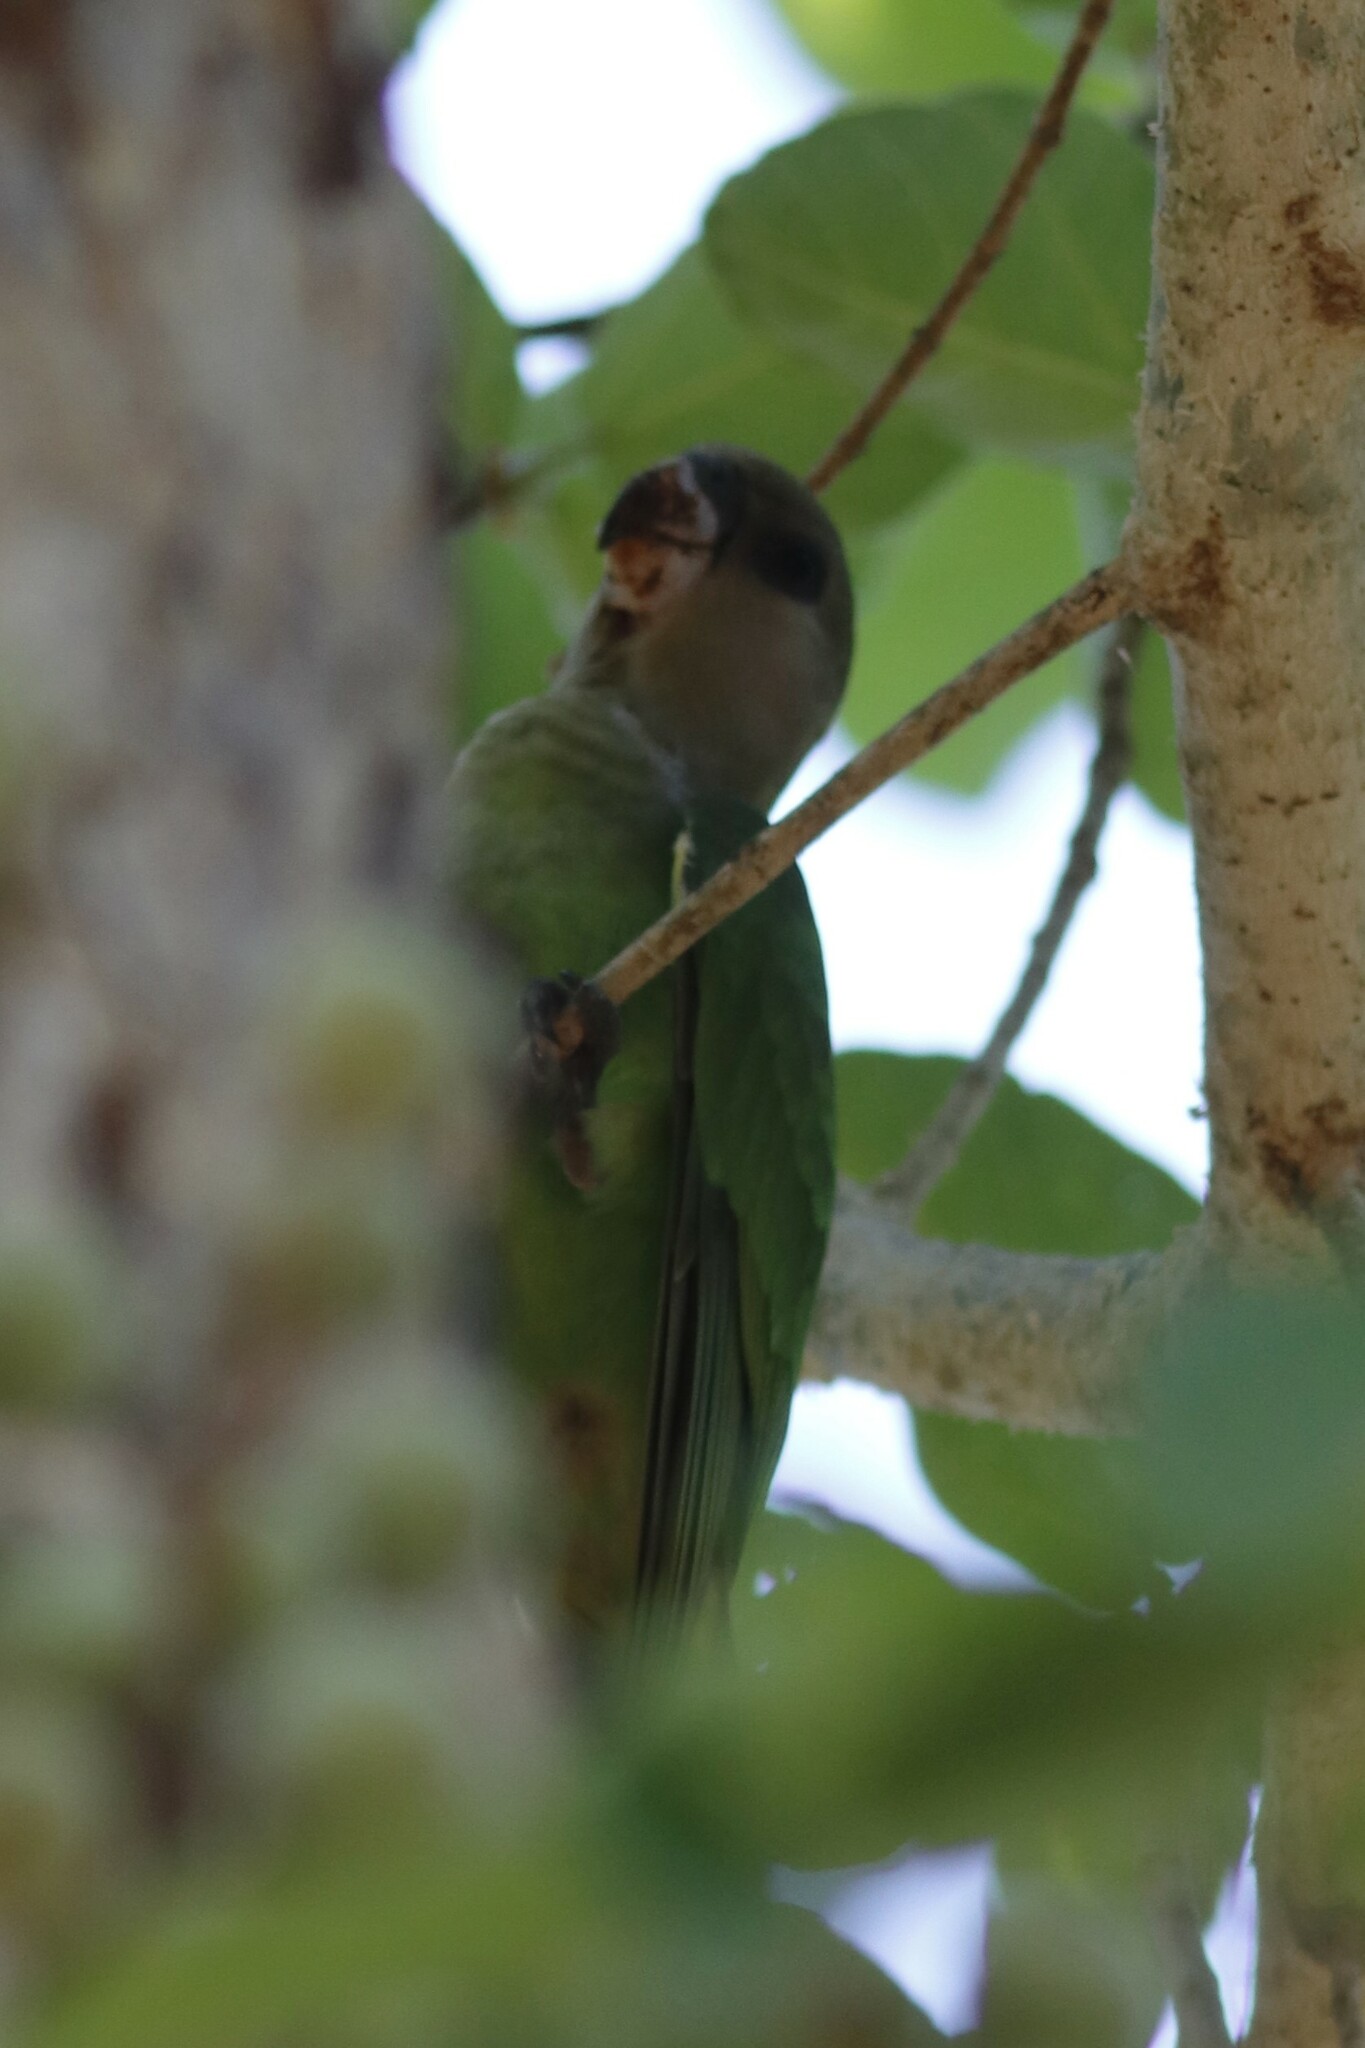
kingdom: Animalia
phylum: Chordata
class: Aves
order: Psittaciformes
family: Psittacidae
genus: Poicephalus
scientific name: Poicephalus cryptoxanthus
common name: Brown-headed parrot
